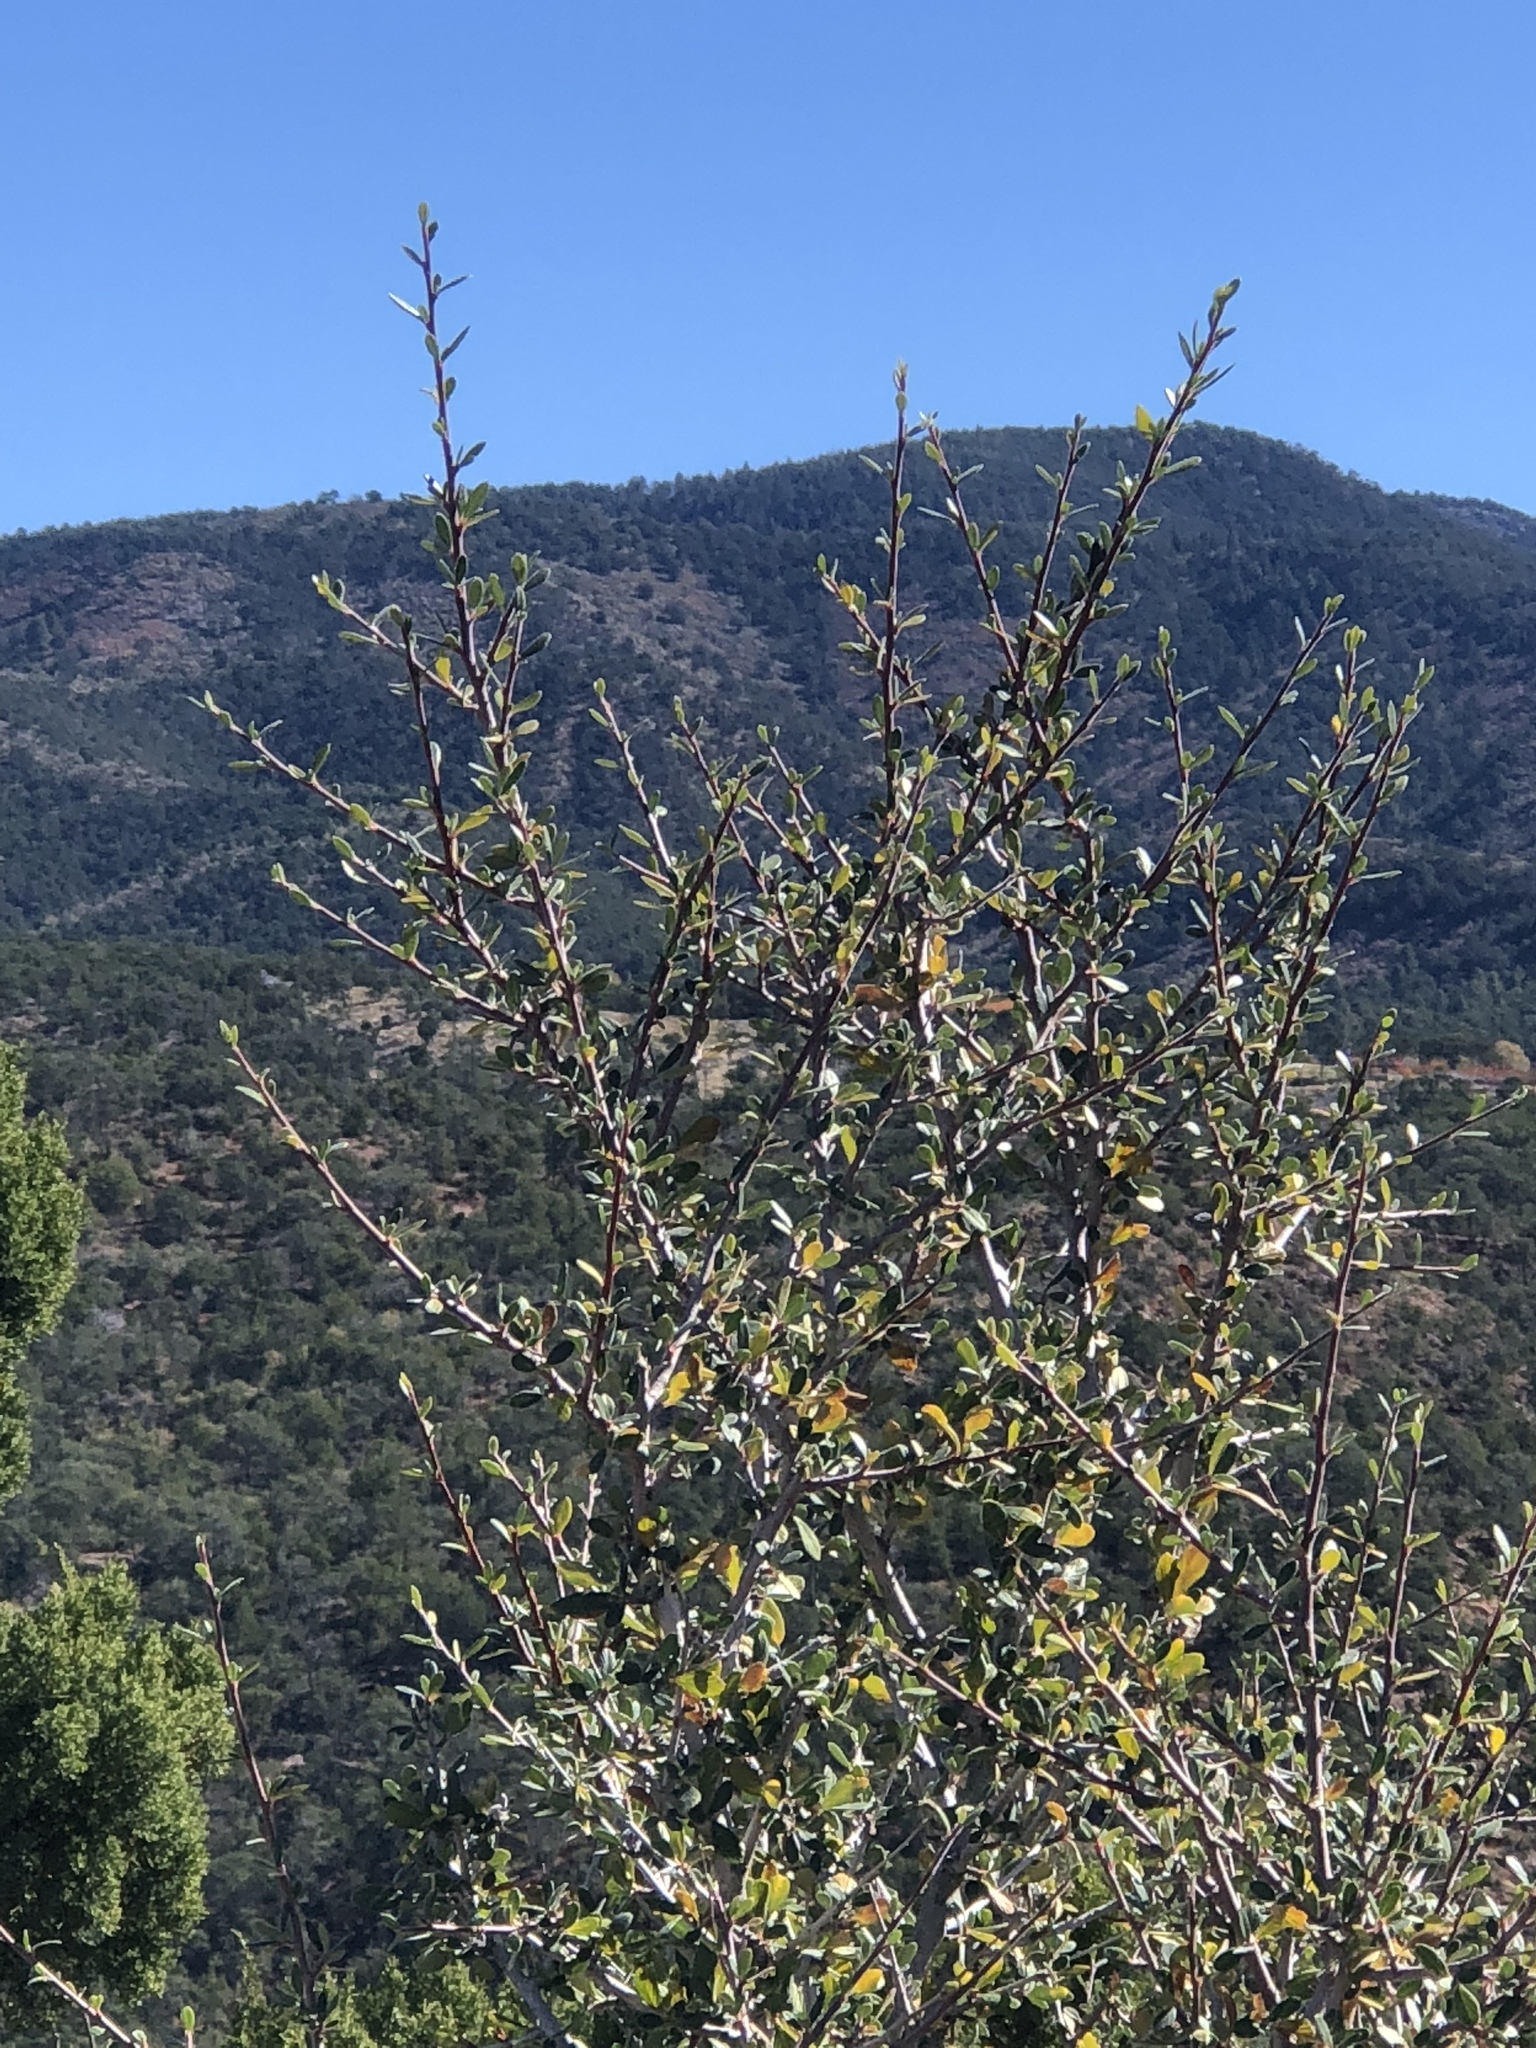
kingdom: Plantae
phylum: Tracheophyta
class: Magnoliopsida
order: Rosales
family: Rosaceae
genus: Cercocarpus
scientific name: Cercocarpus breviflorus
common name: Wright's mountain-mahogany
